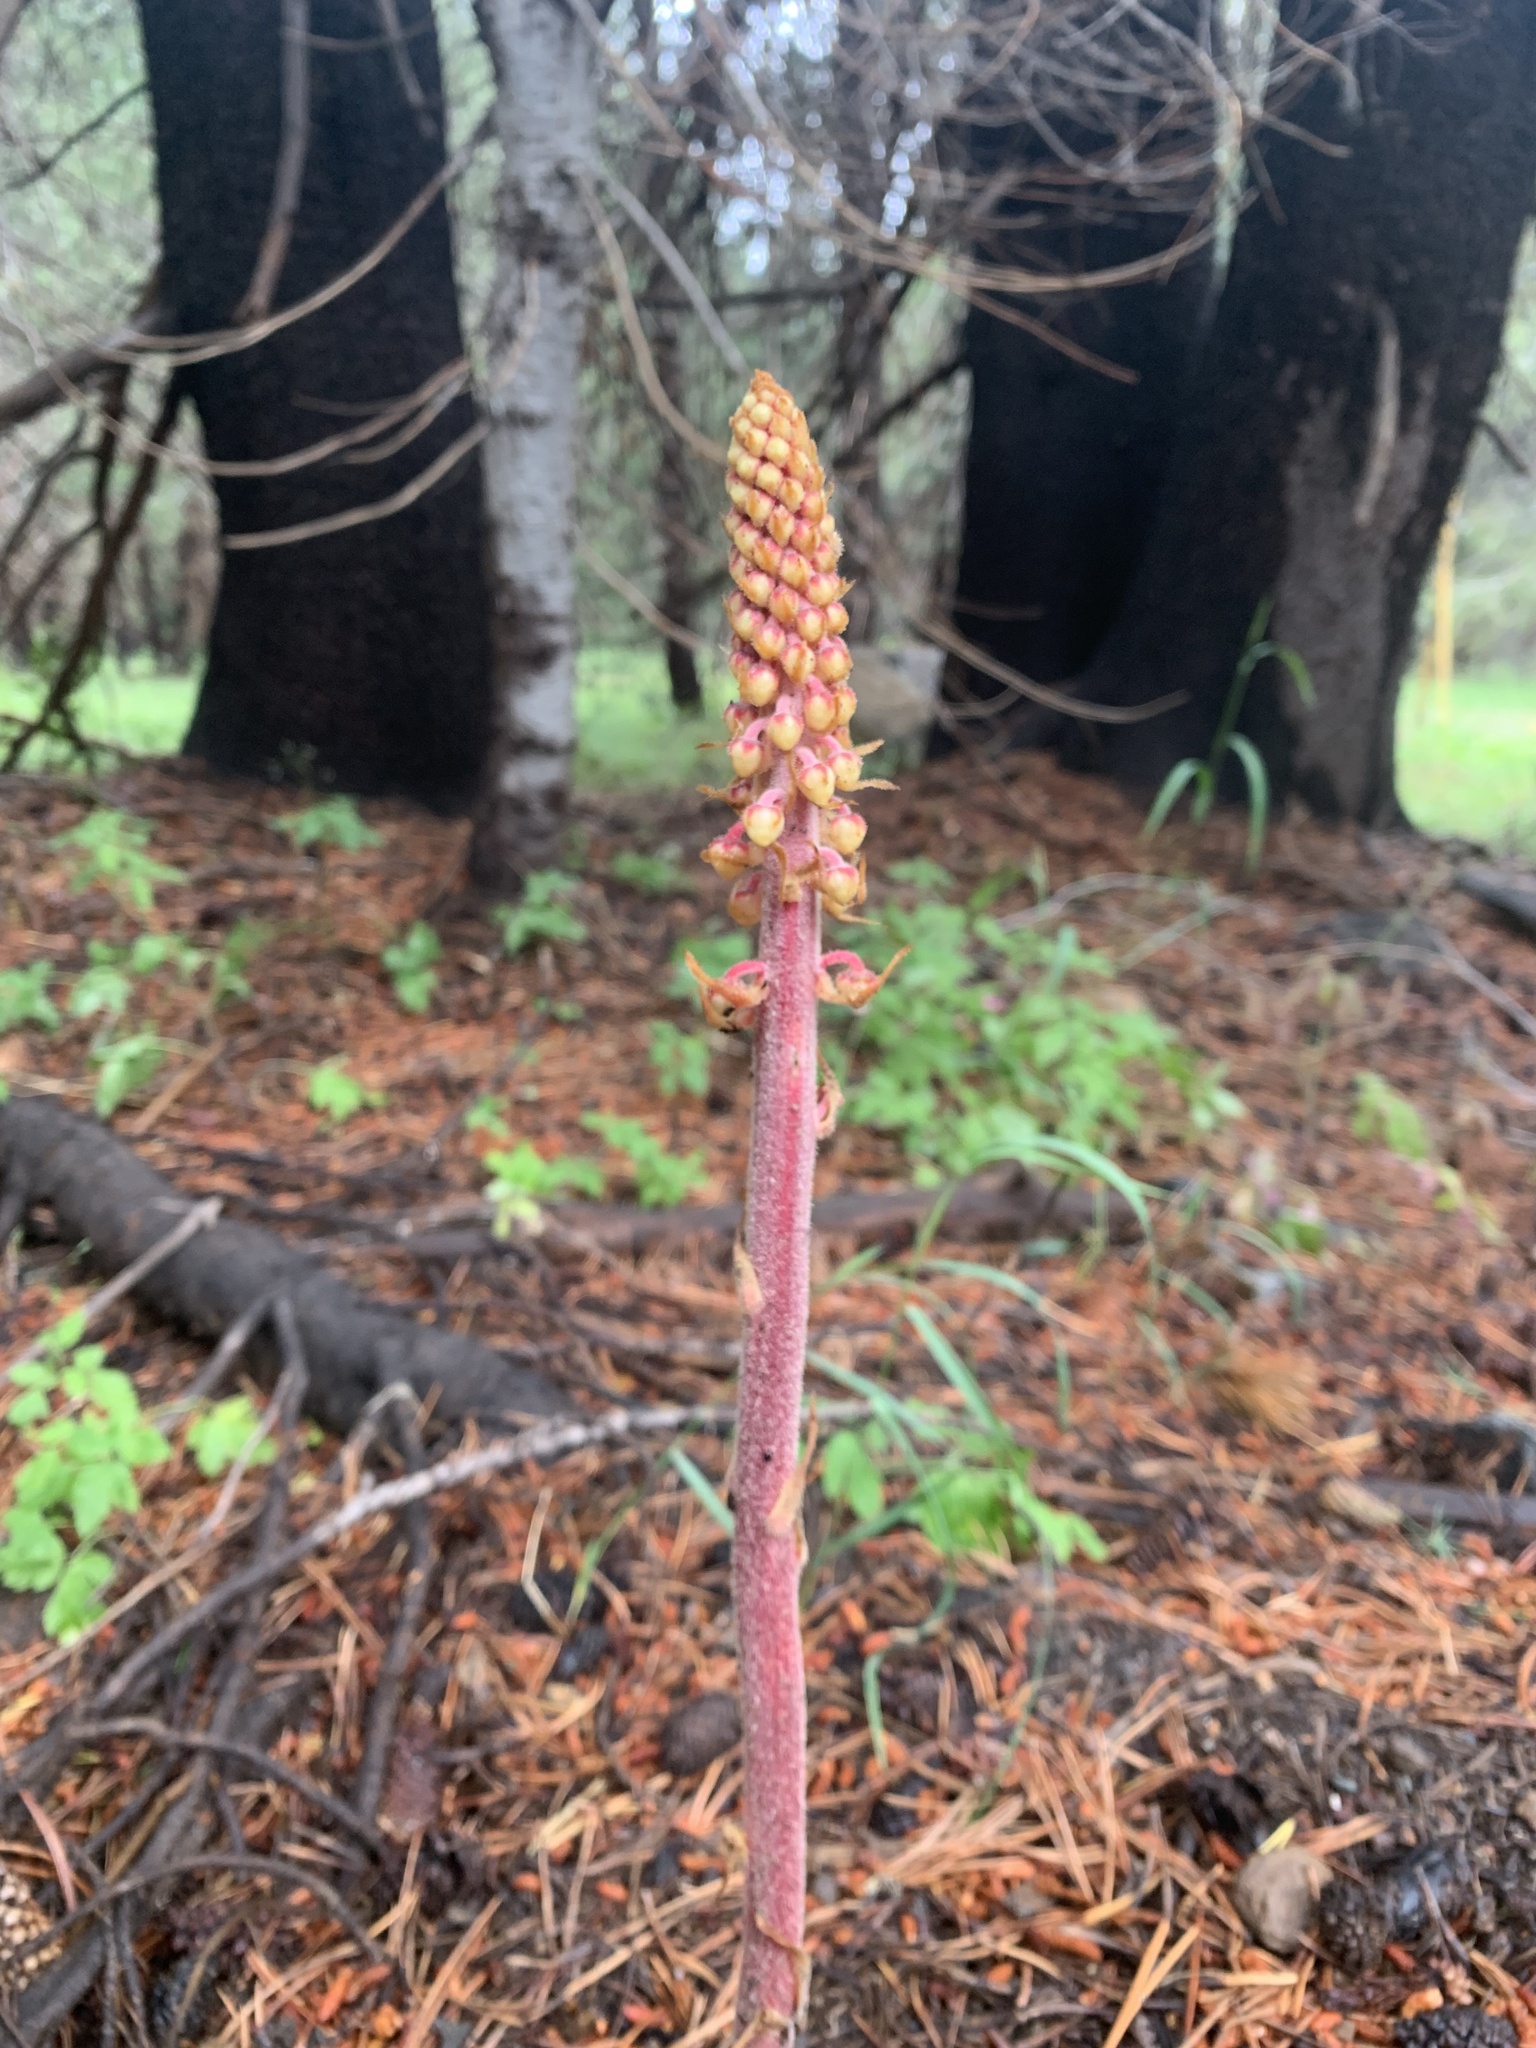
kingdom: Plantae
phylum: Tracheophyta
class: Magnoliopsida
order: Ericales
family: Ericaceae
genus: Pterospora
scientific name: Pterospora andromedea
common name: Giant bird's-nest
